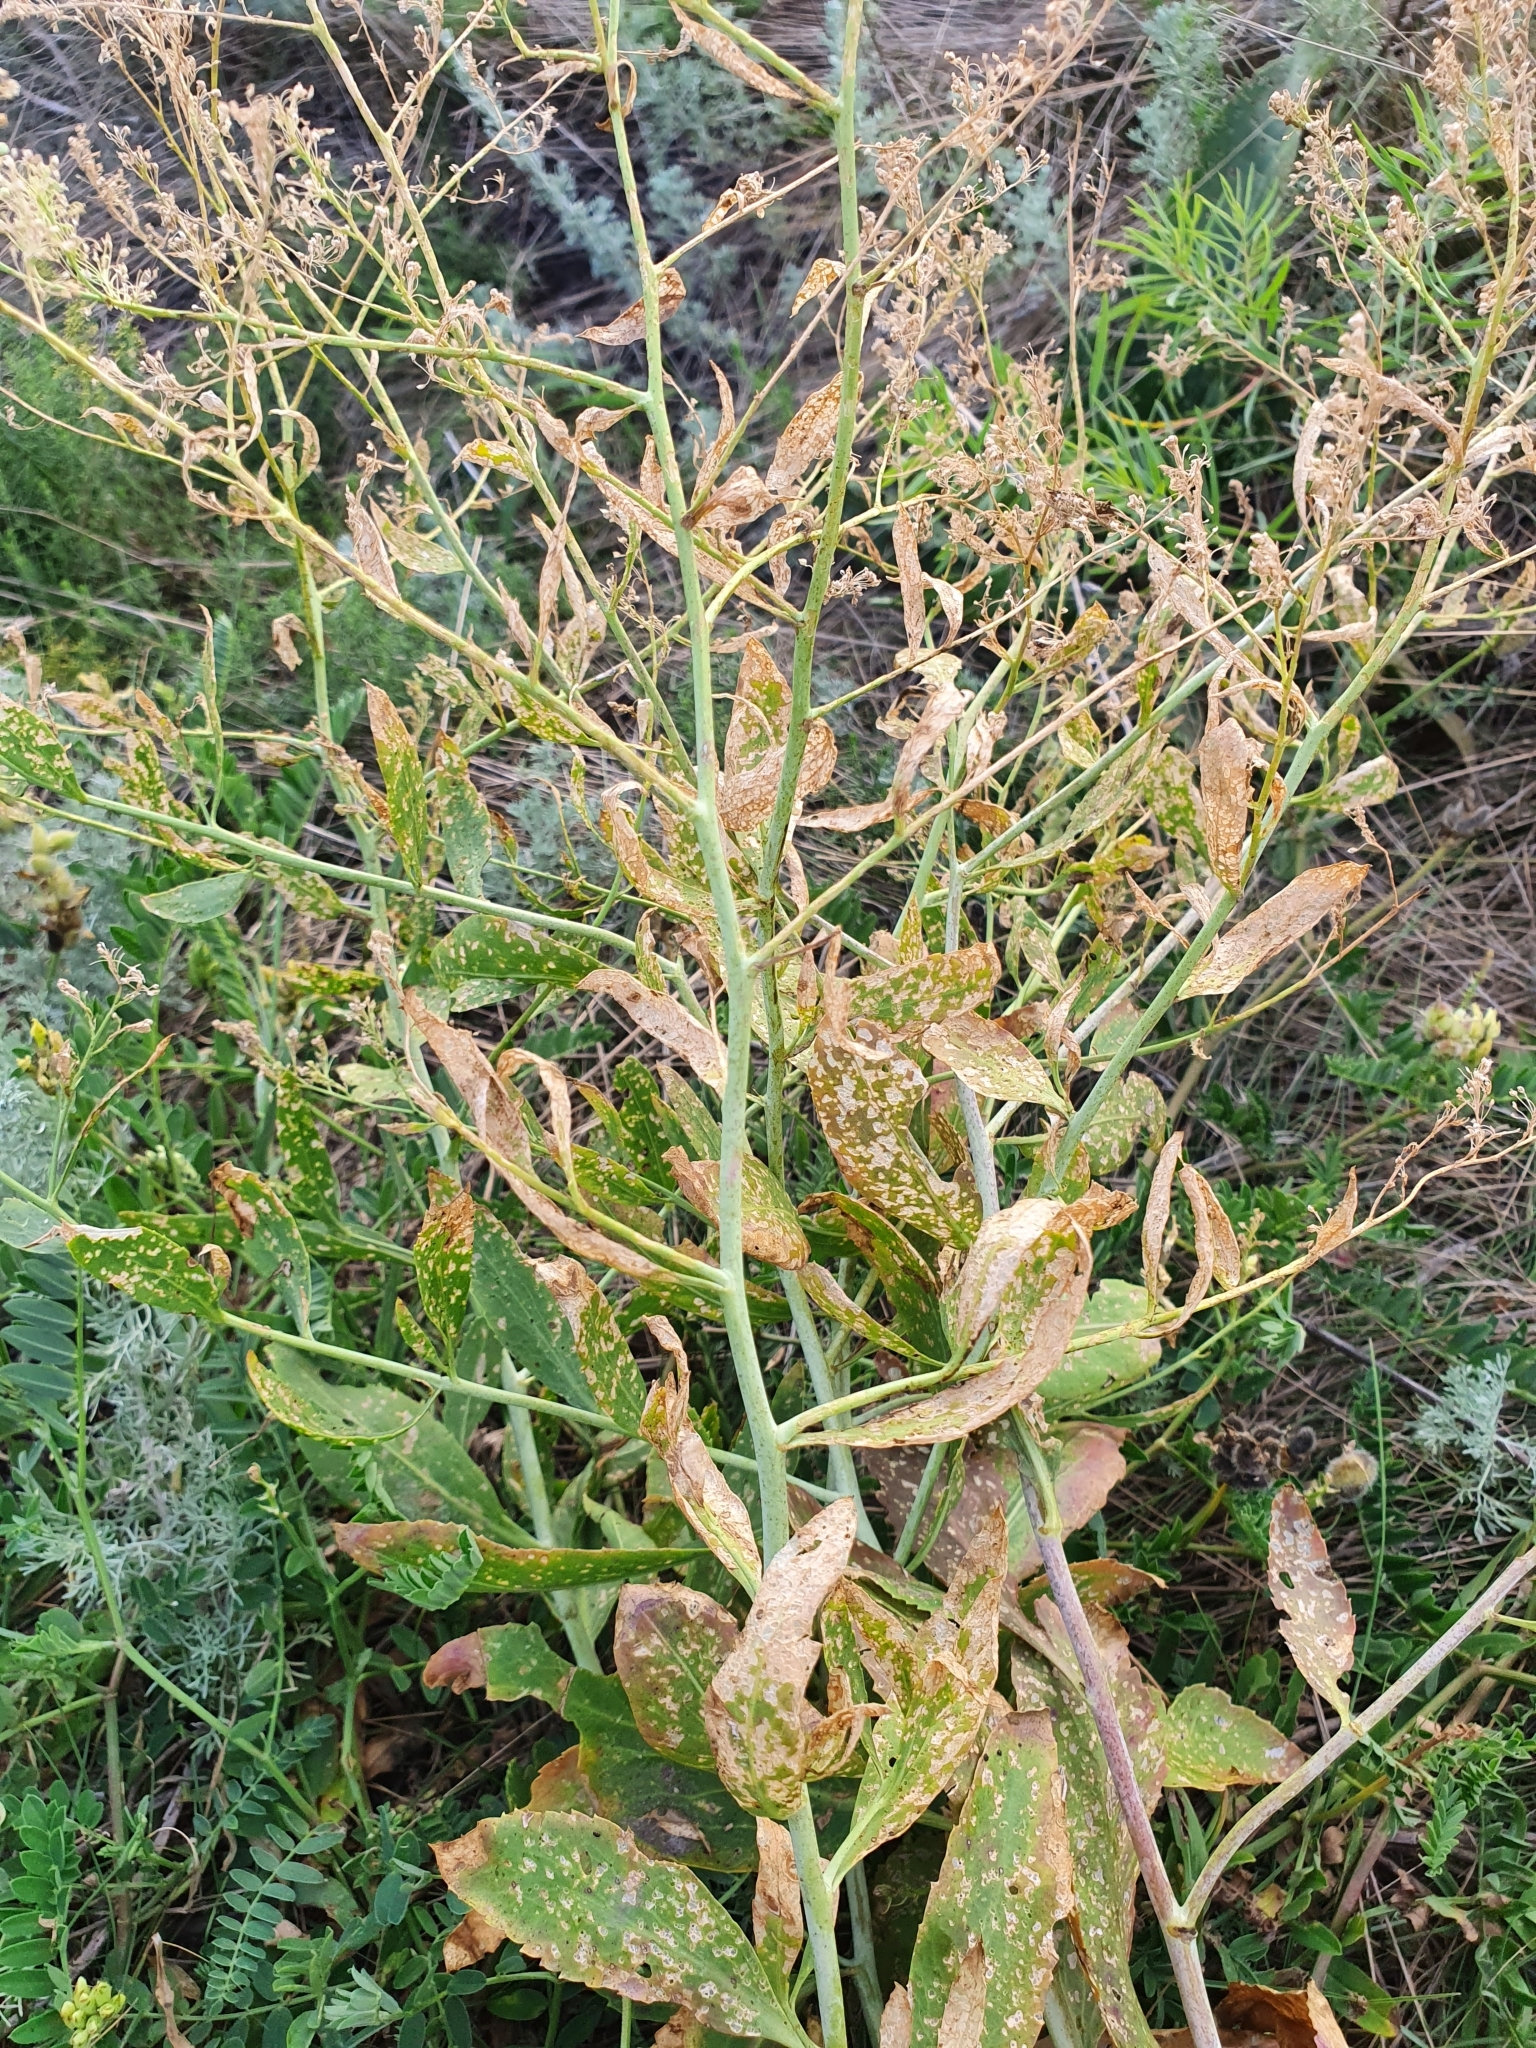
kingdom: Plantae
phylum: Tracheophyta
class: Magnoliopsida
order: Brassicales
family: Brassicaceae
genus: Lepidium
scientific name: Lepidium latifolium
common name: Dittander
